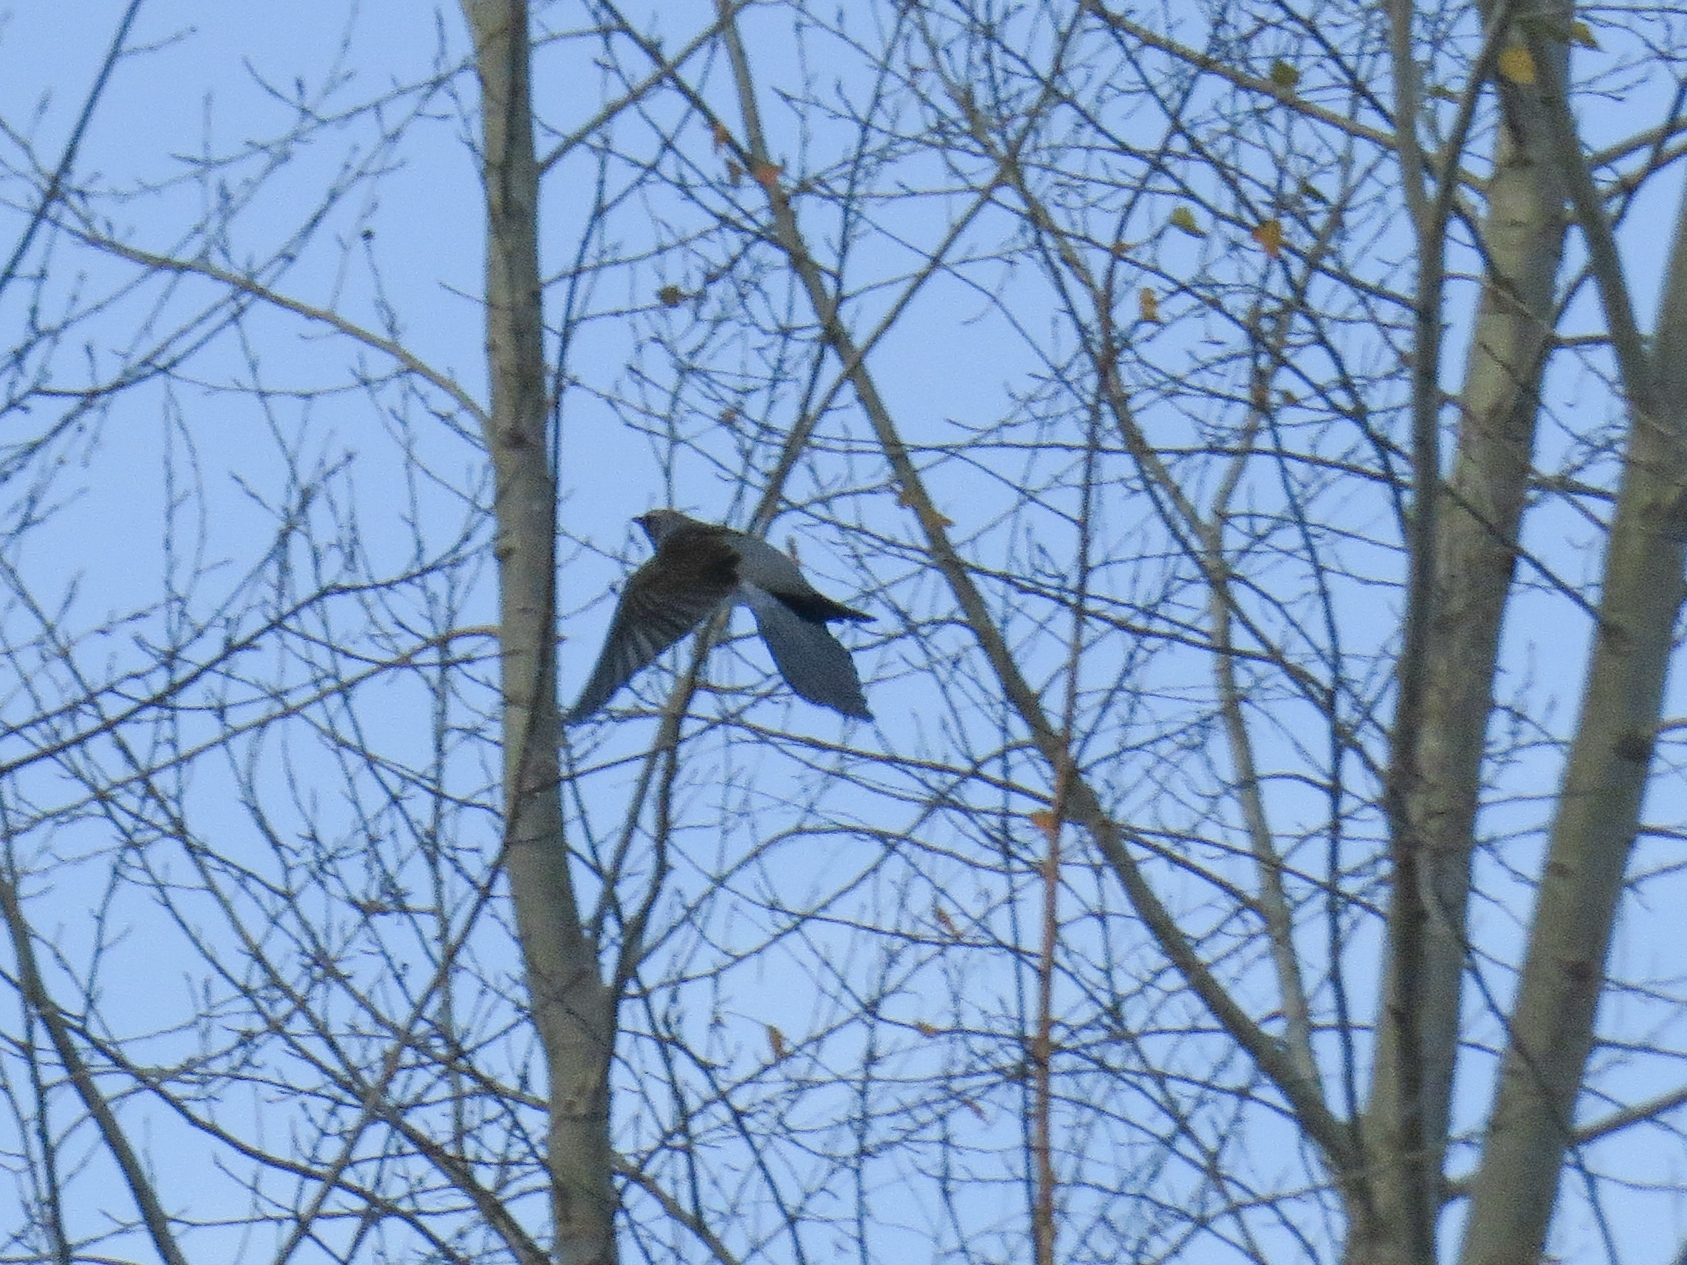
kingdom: Animalia
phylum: Chordata
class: Aves
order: Passeriformes
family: Turdidae
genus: Turdus
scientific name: Turdus pilaris
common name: Fieldfare
